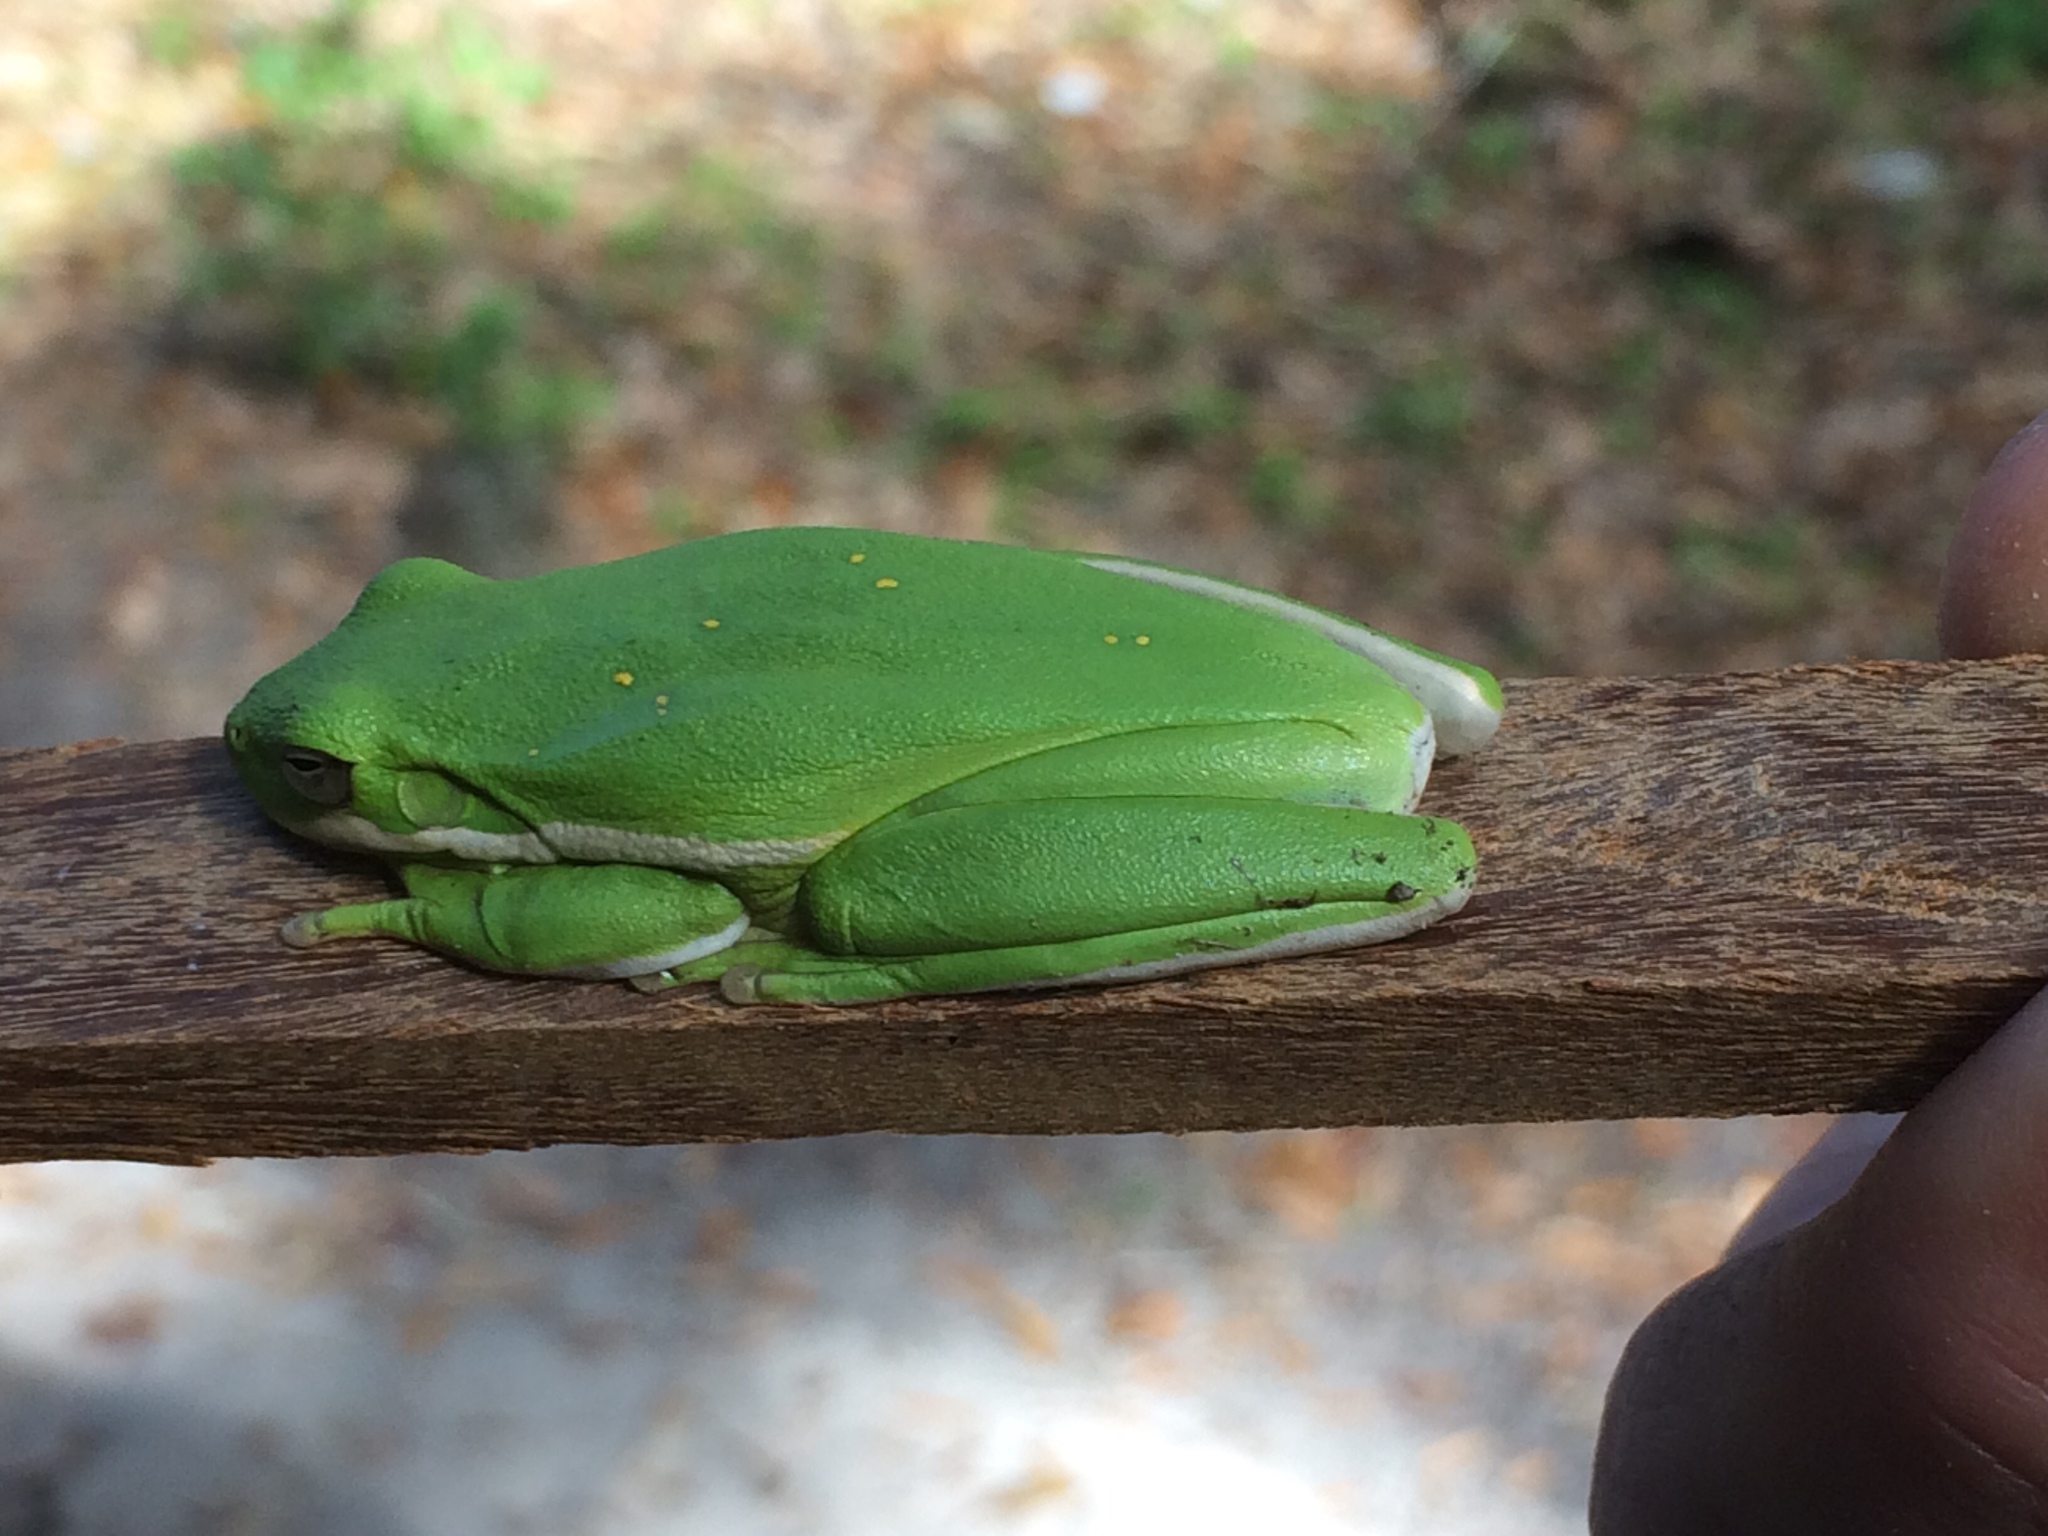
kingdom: Animalia
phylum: Chordata
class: Amphibia
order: Anura
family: Hylidae
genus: Dryophytes
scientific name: Dryophytes cinereus
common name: Green treefrog
